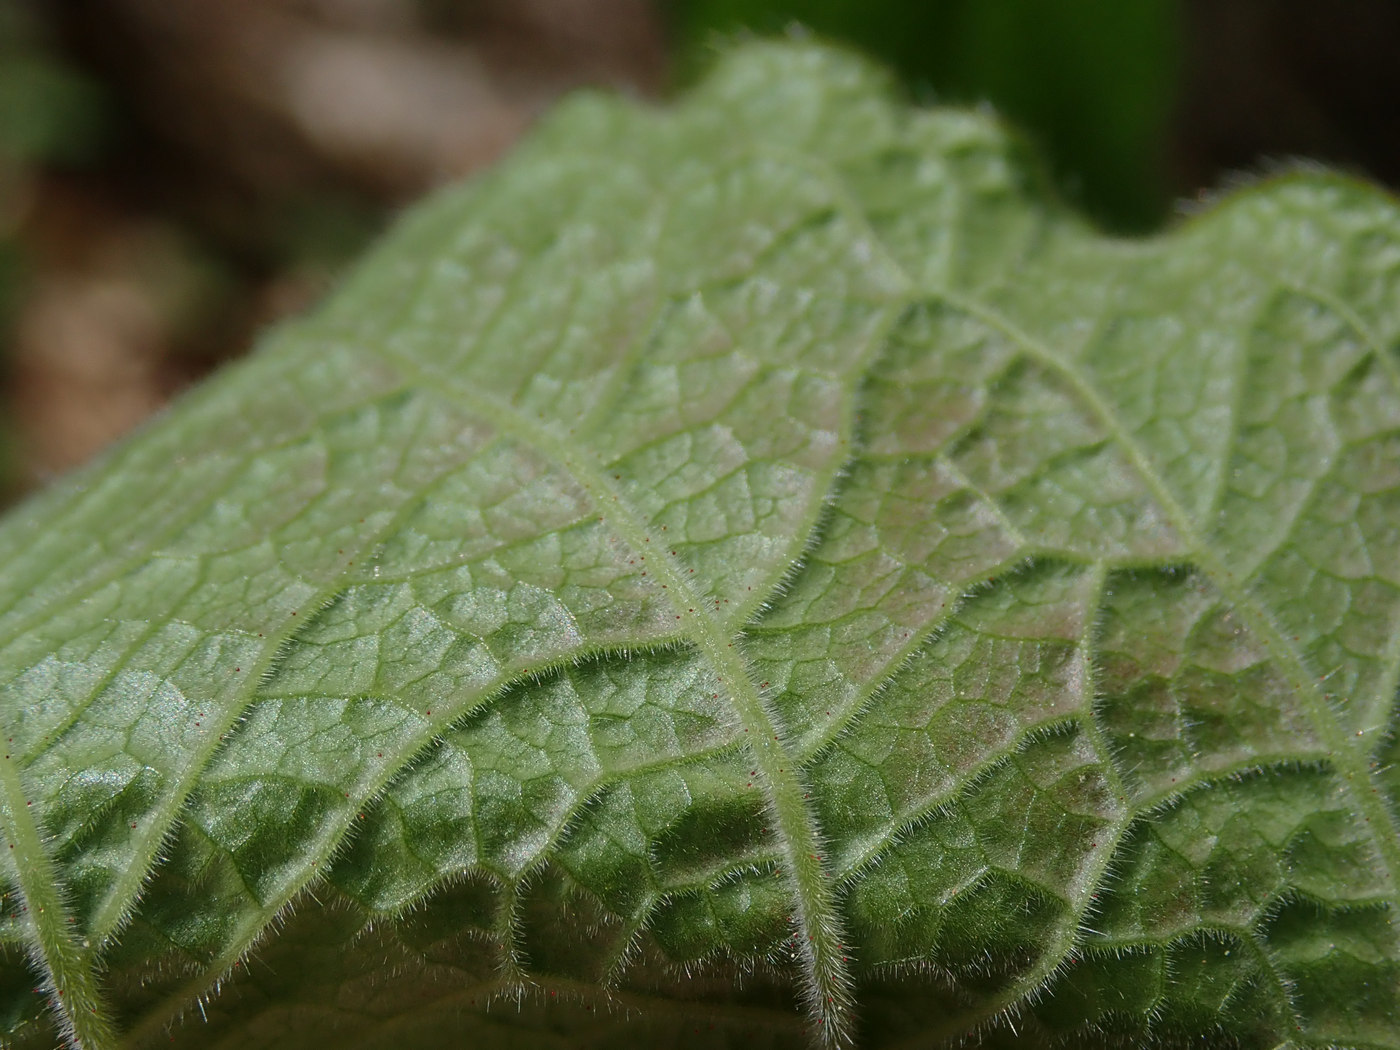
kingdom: Plantae
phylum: Tracheophyta
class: Magnoliopsida
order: Dipsacales
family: Caprifoliaceae
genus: Triosteum
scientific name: Triosteum aurantiacum
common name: Coffee tinker's-weed
